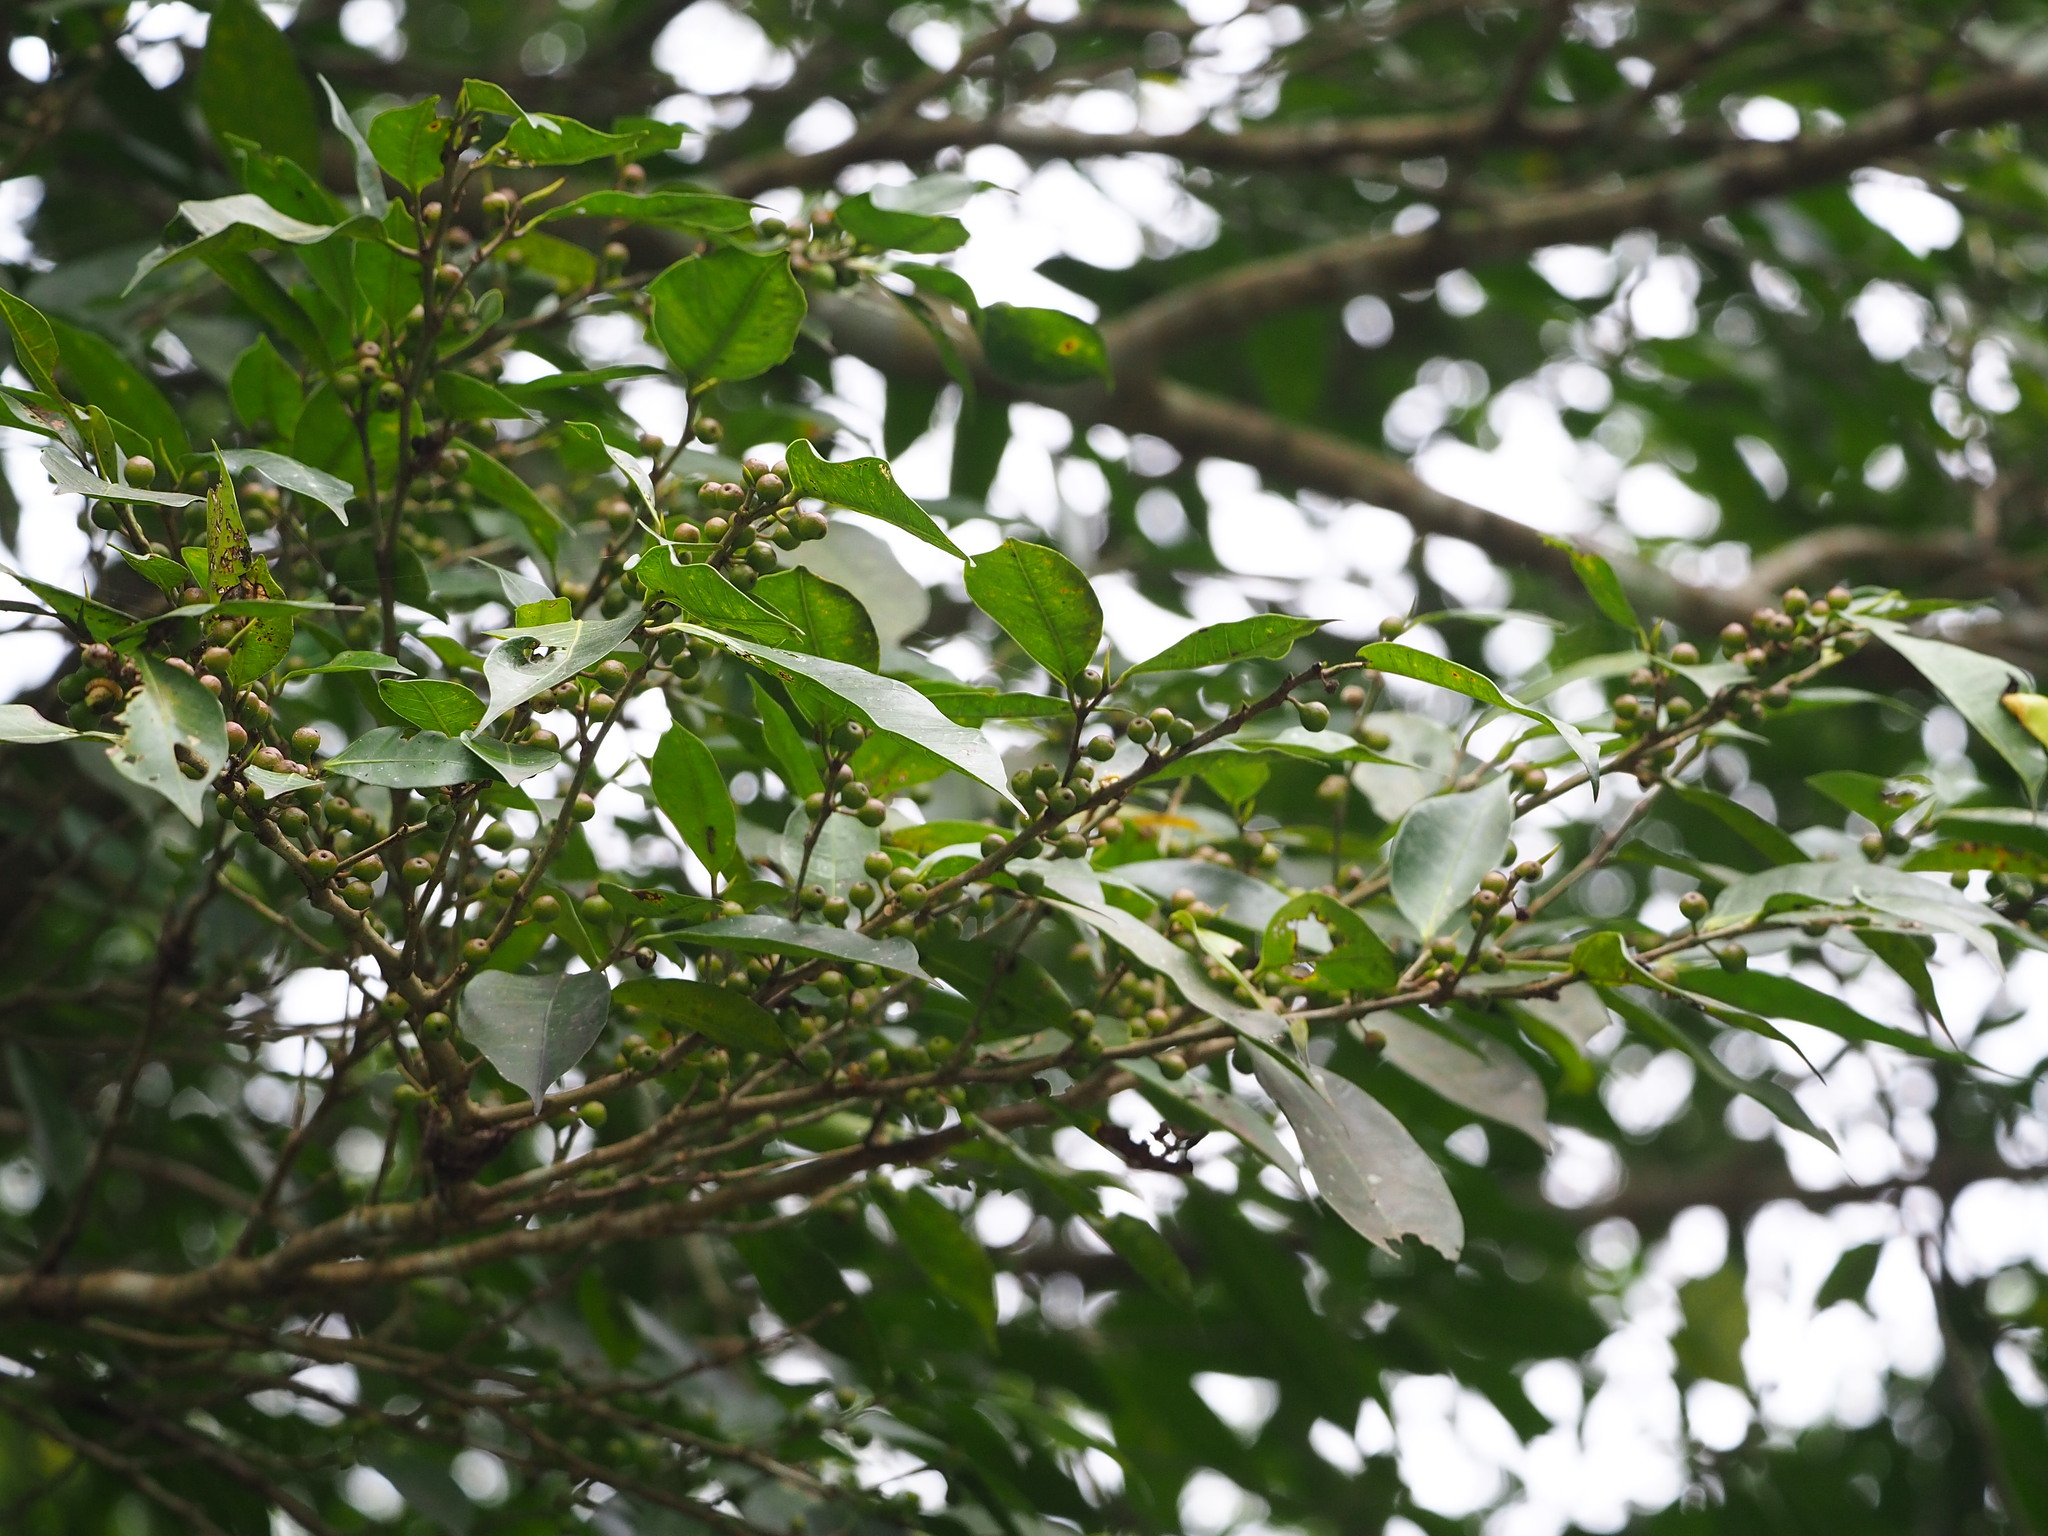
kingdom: Plantae
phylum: Tracheophyta
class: Magnoliopsida
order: Rosales
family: Moraceae
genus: Ficus
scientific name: Ficus virgata
